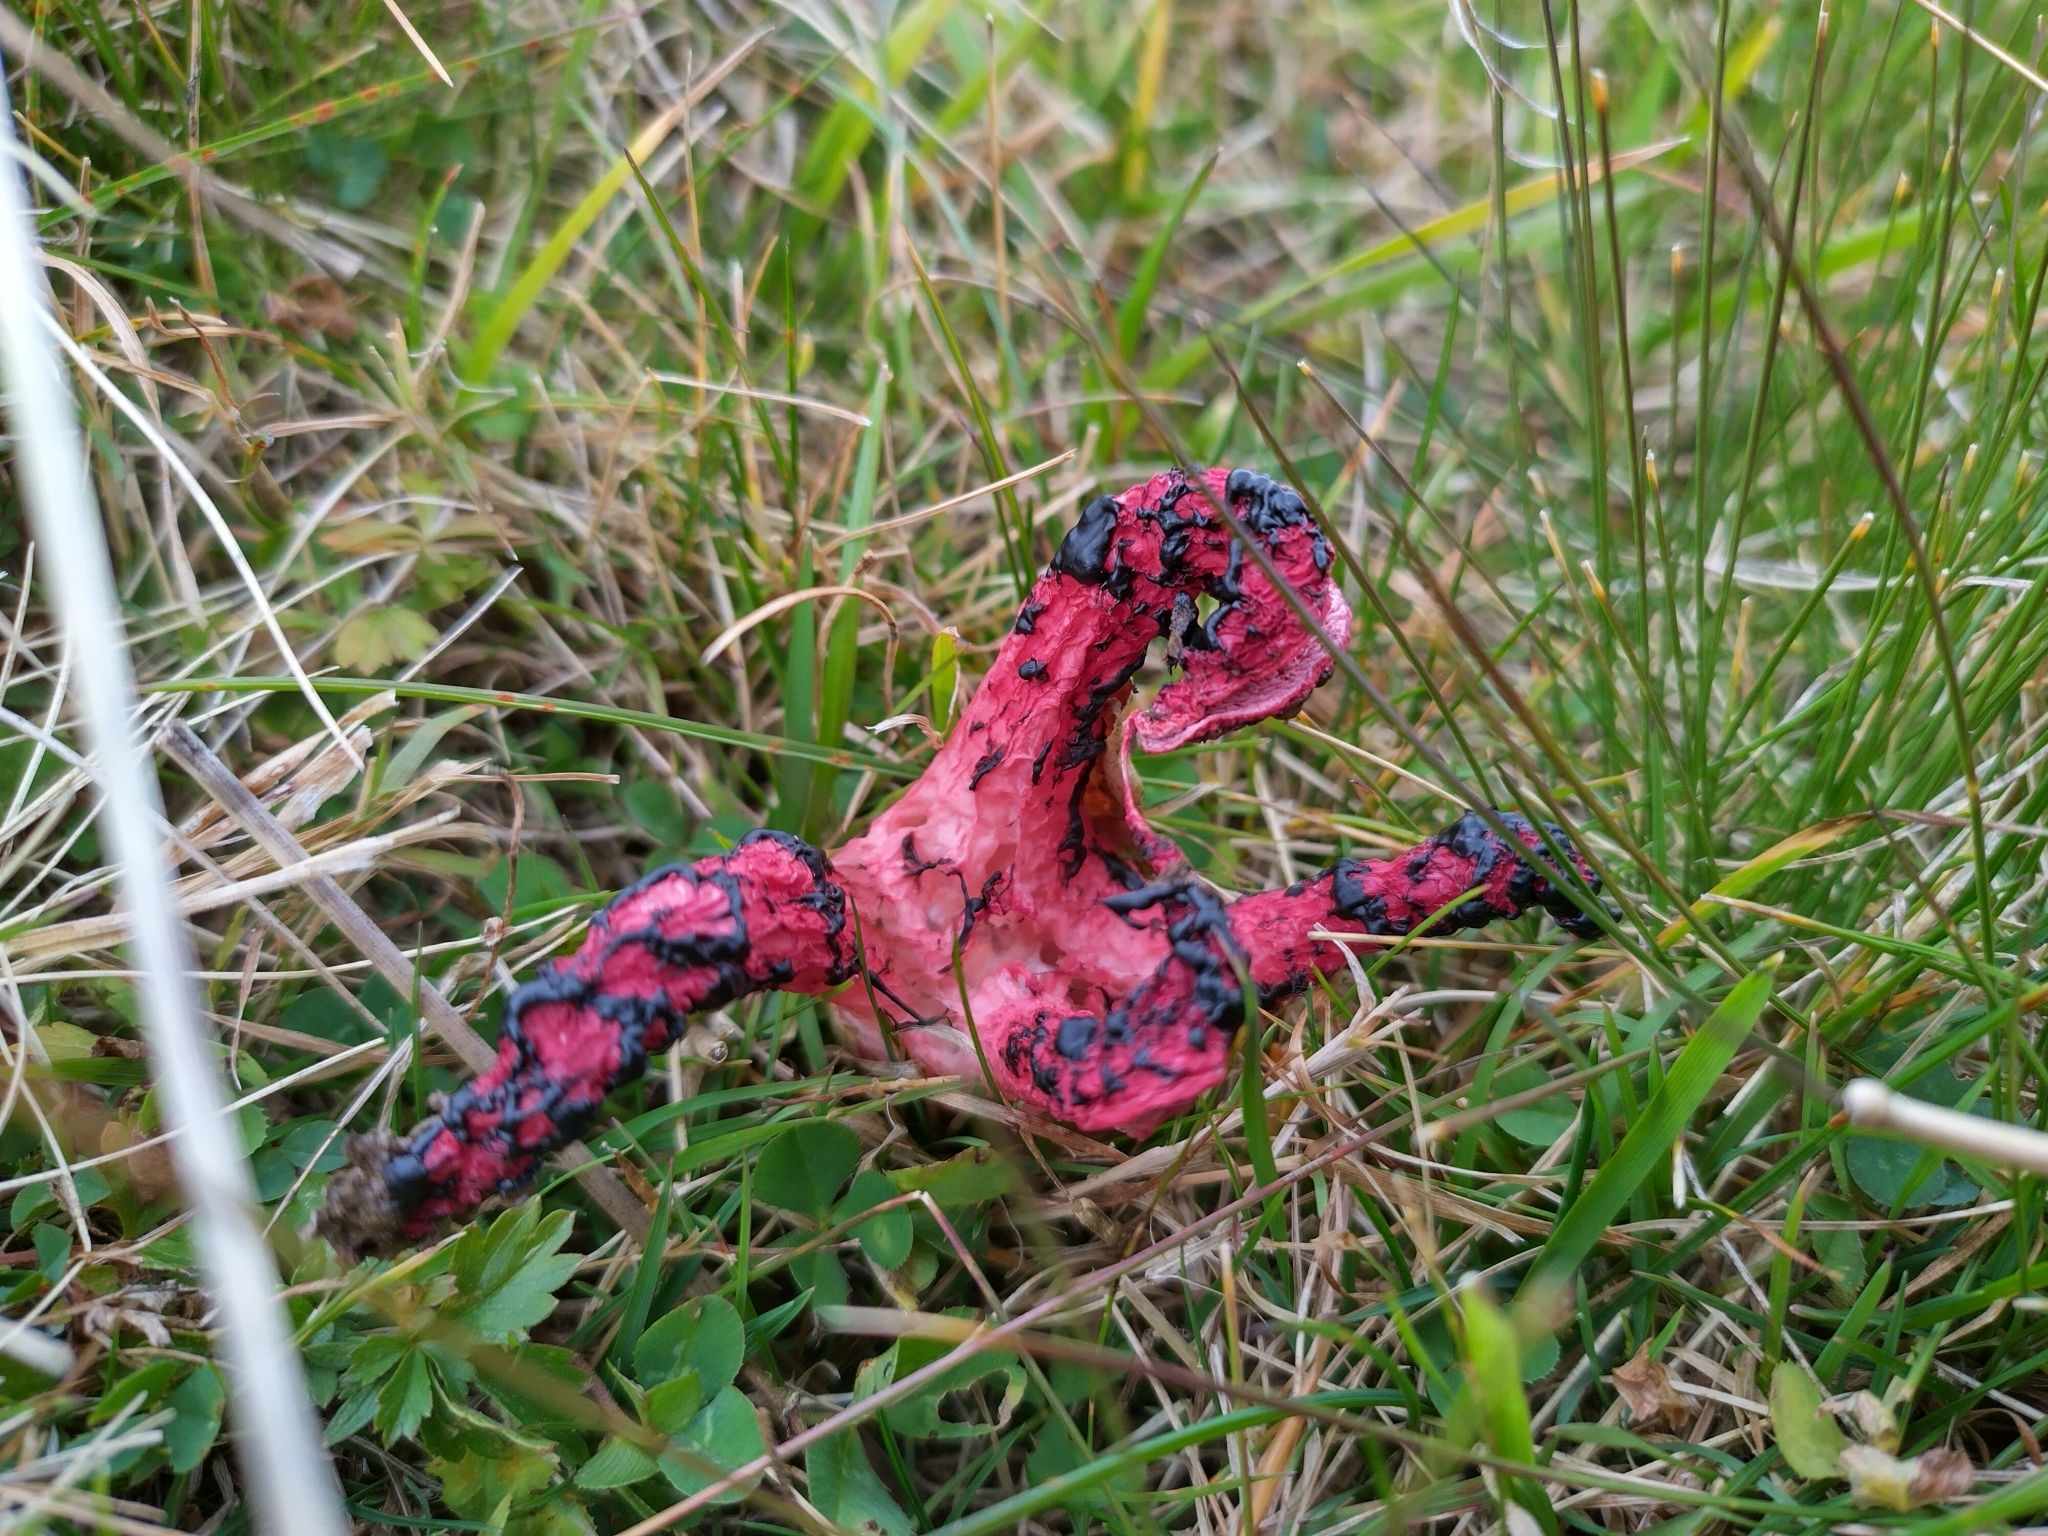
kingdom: Fungi
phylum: Basidiomycota
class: Agaricomycetes
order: Phallales
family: Phallaceae
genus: Clathrus
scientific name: Clathrus archeri
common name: Devil's fingers
